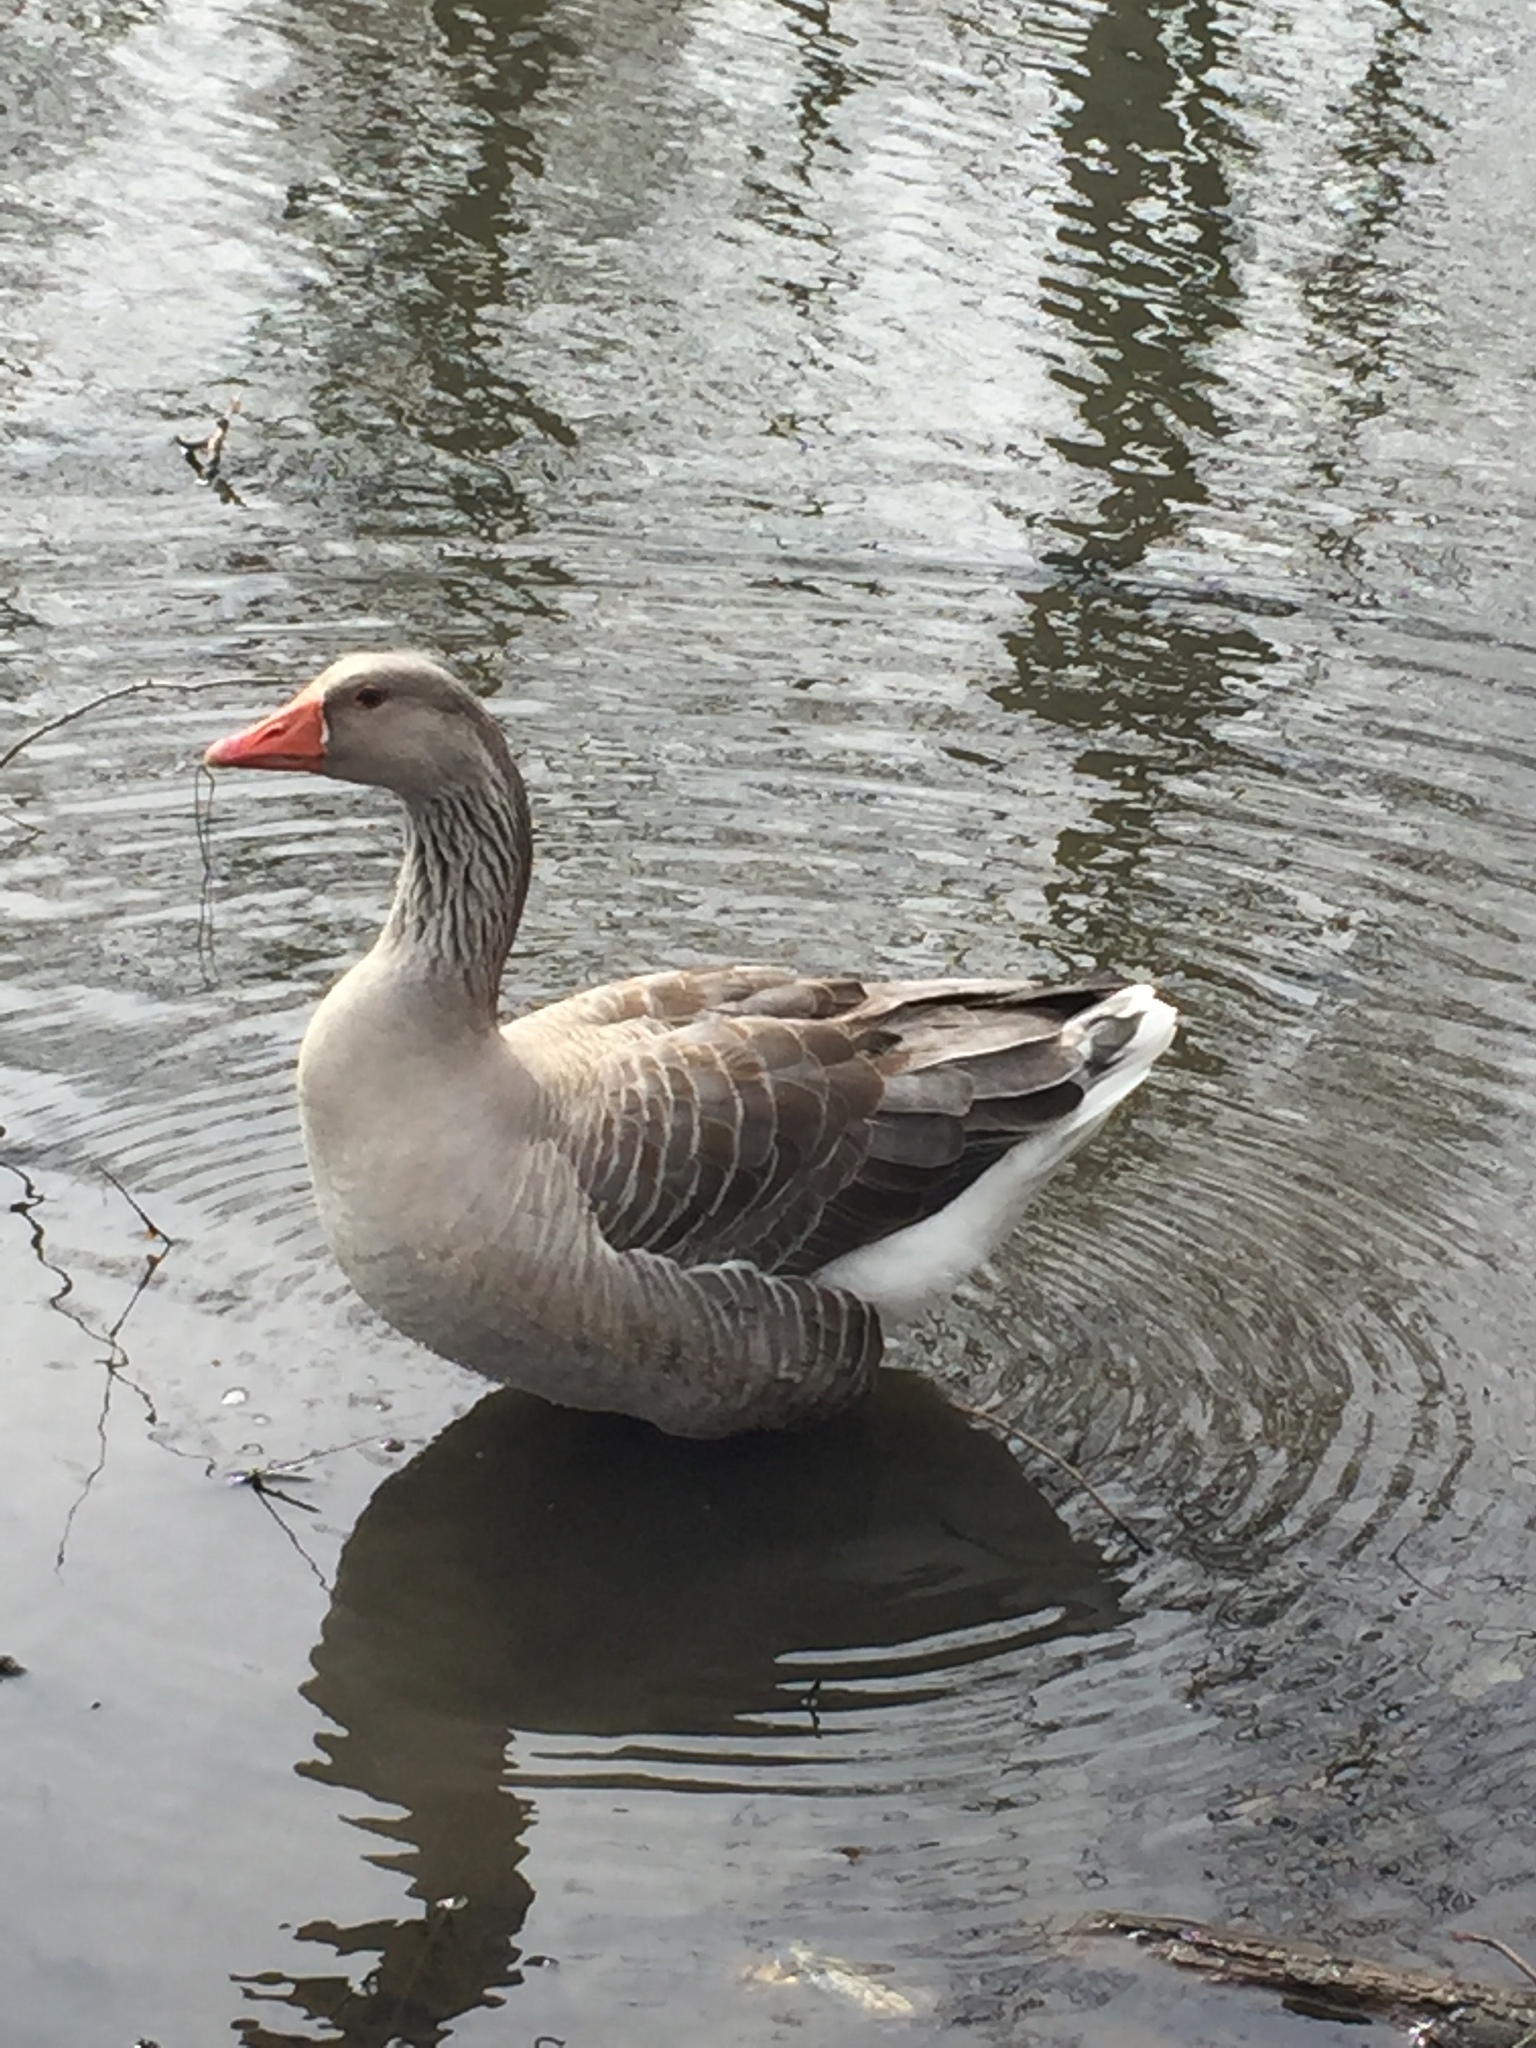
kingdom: Animalia
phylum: Chordata
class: Aves
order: Anseriformes
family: Anatidae
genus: Anser
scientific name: Anser anser
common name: Greylag goose
